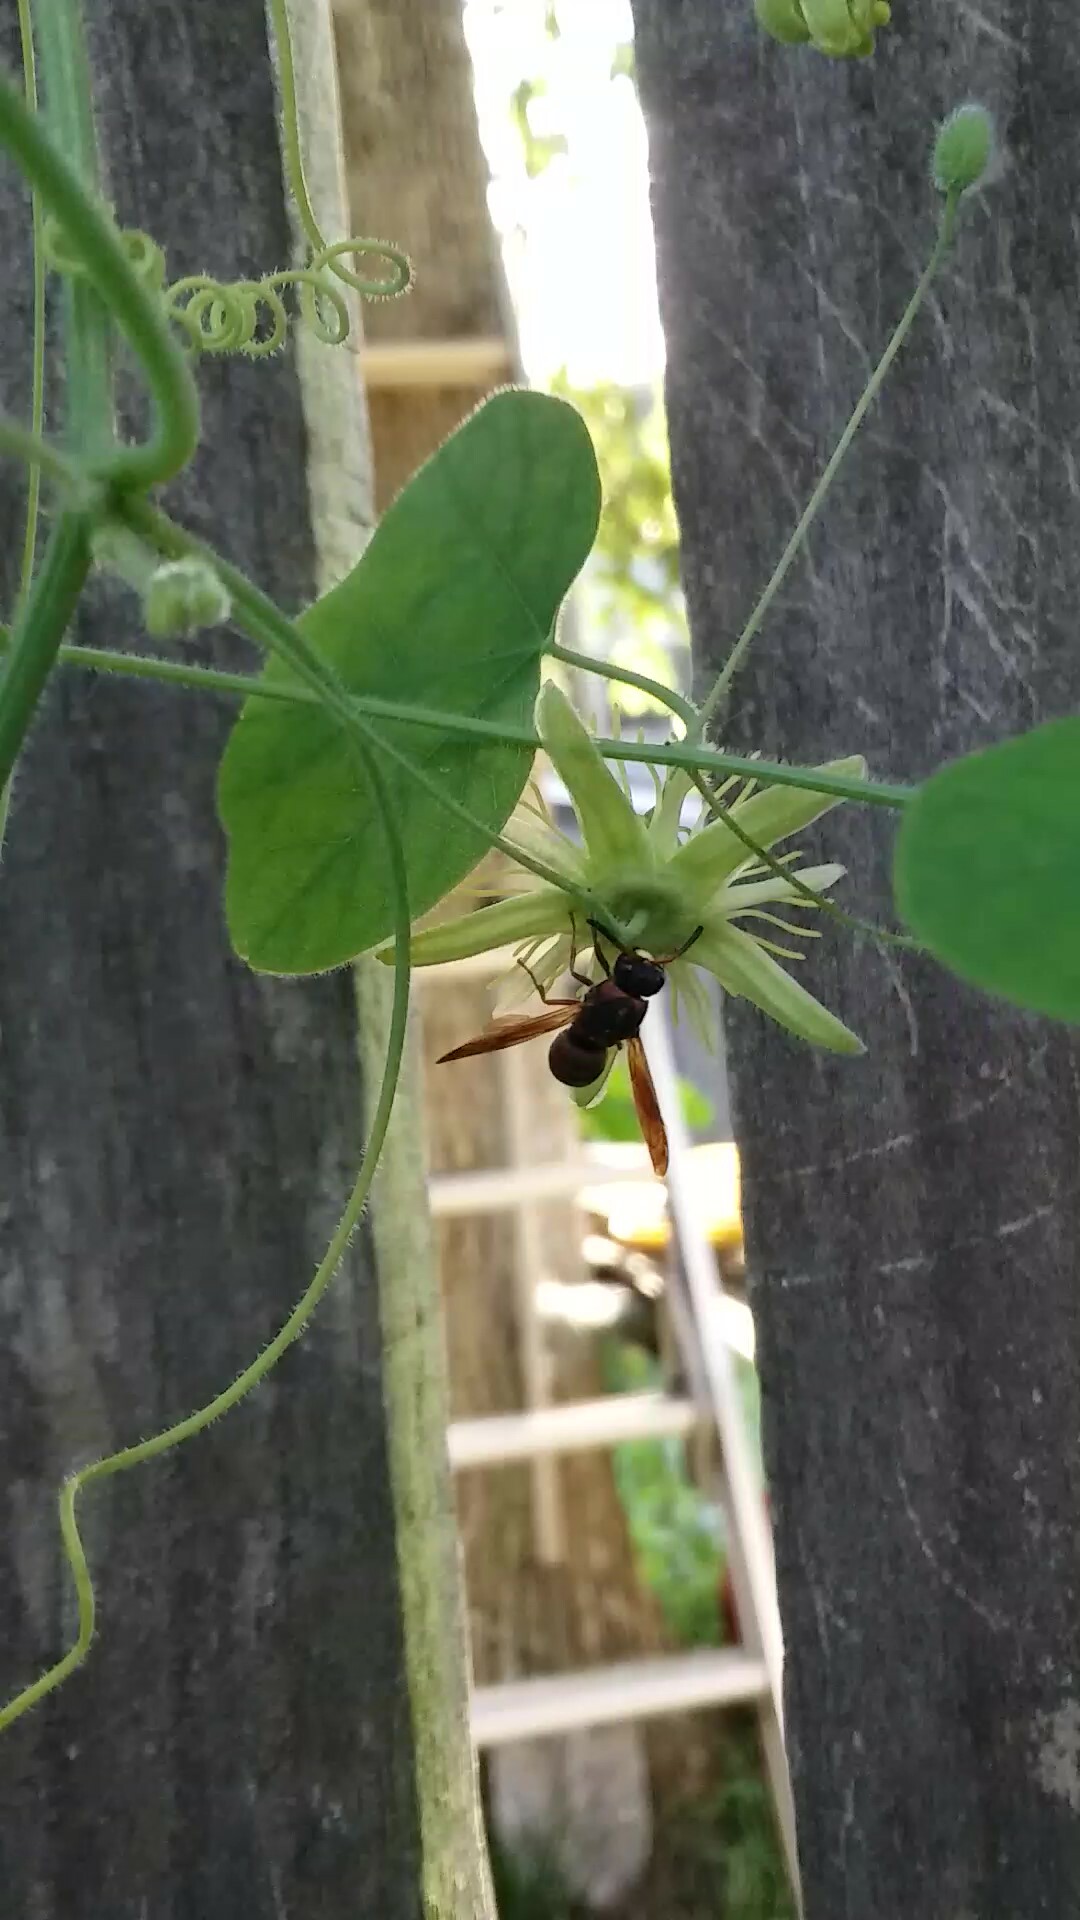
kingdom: Animalia
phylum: Arthropoda
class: Insecta
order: Hymenoptera
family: Eumenidae
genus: Pachodynerus
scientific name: Pachodynerus erynnis
